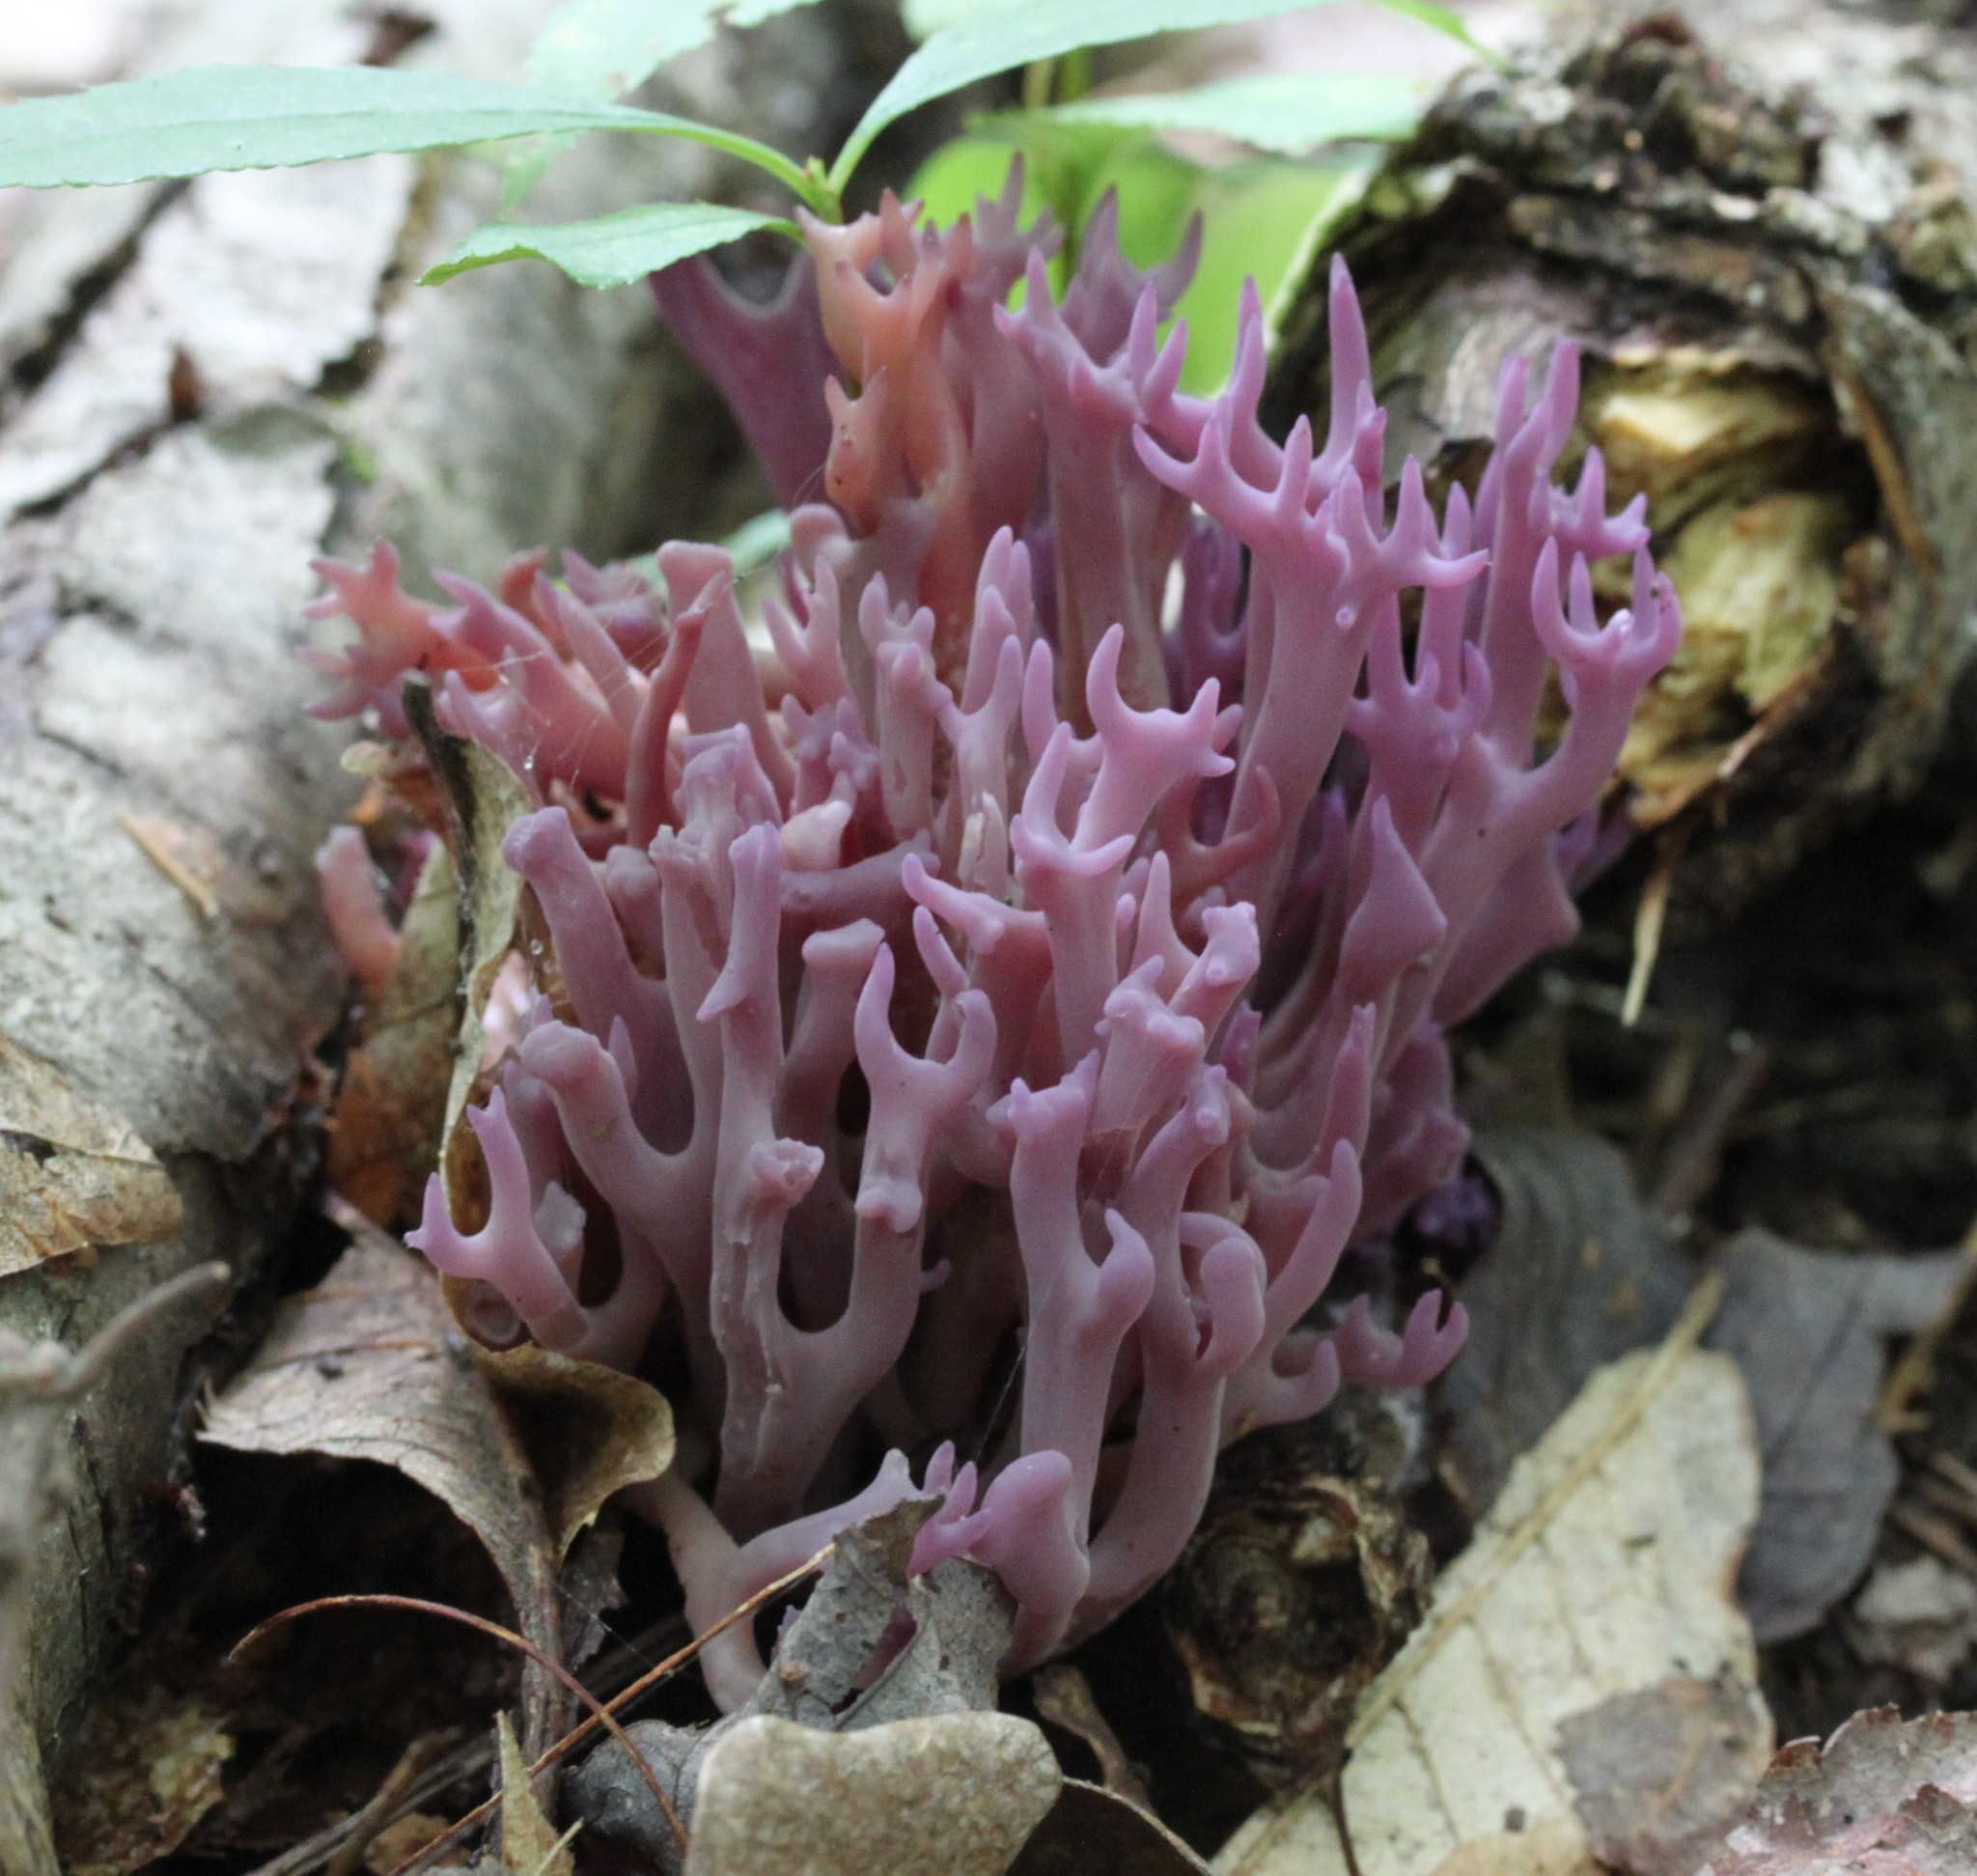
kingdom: Fungi
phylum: Basidiomycota
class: Agaricomycetes
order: Agaricales
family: Clavariaceae
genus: Clavaria
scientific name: Clavaria zollingeri
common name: Violet coral
